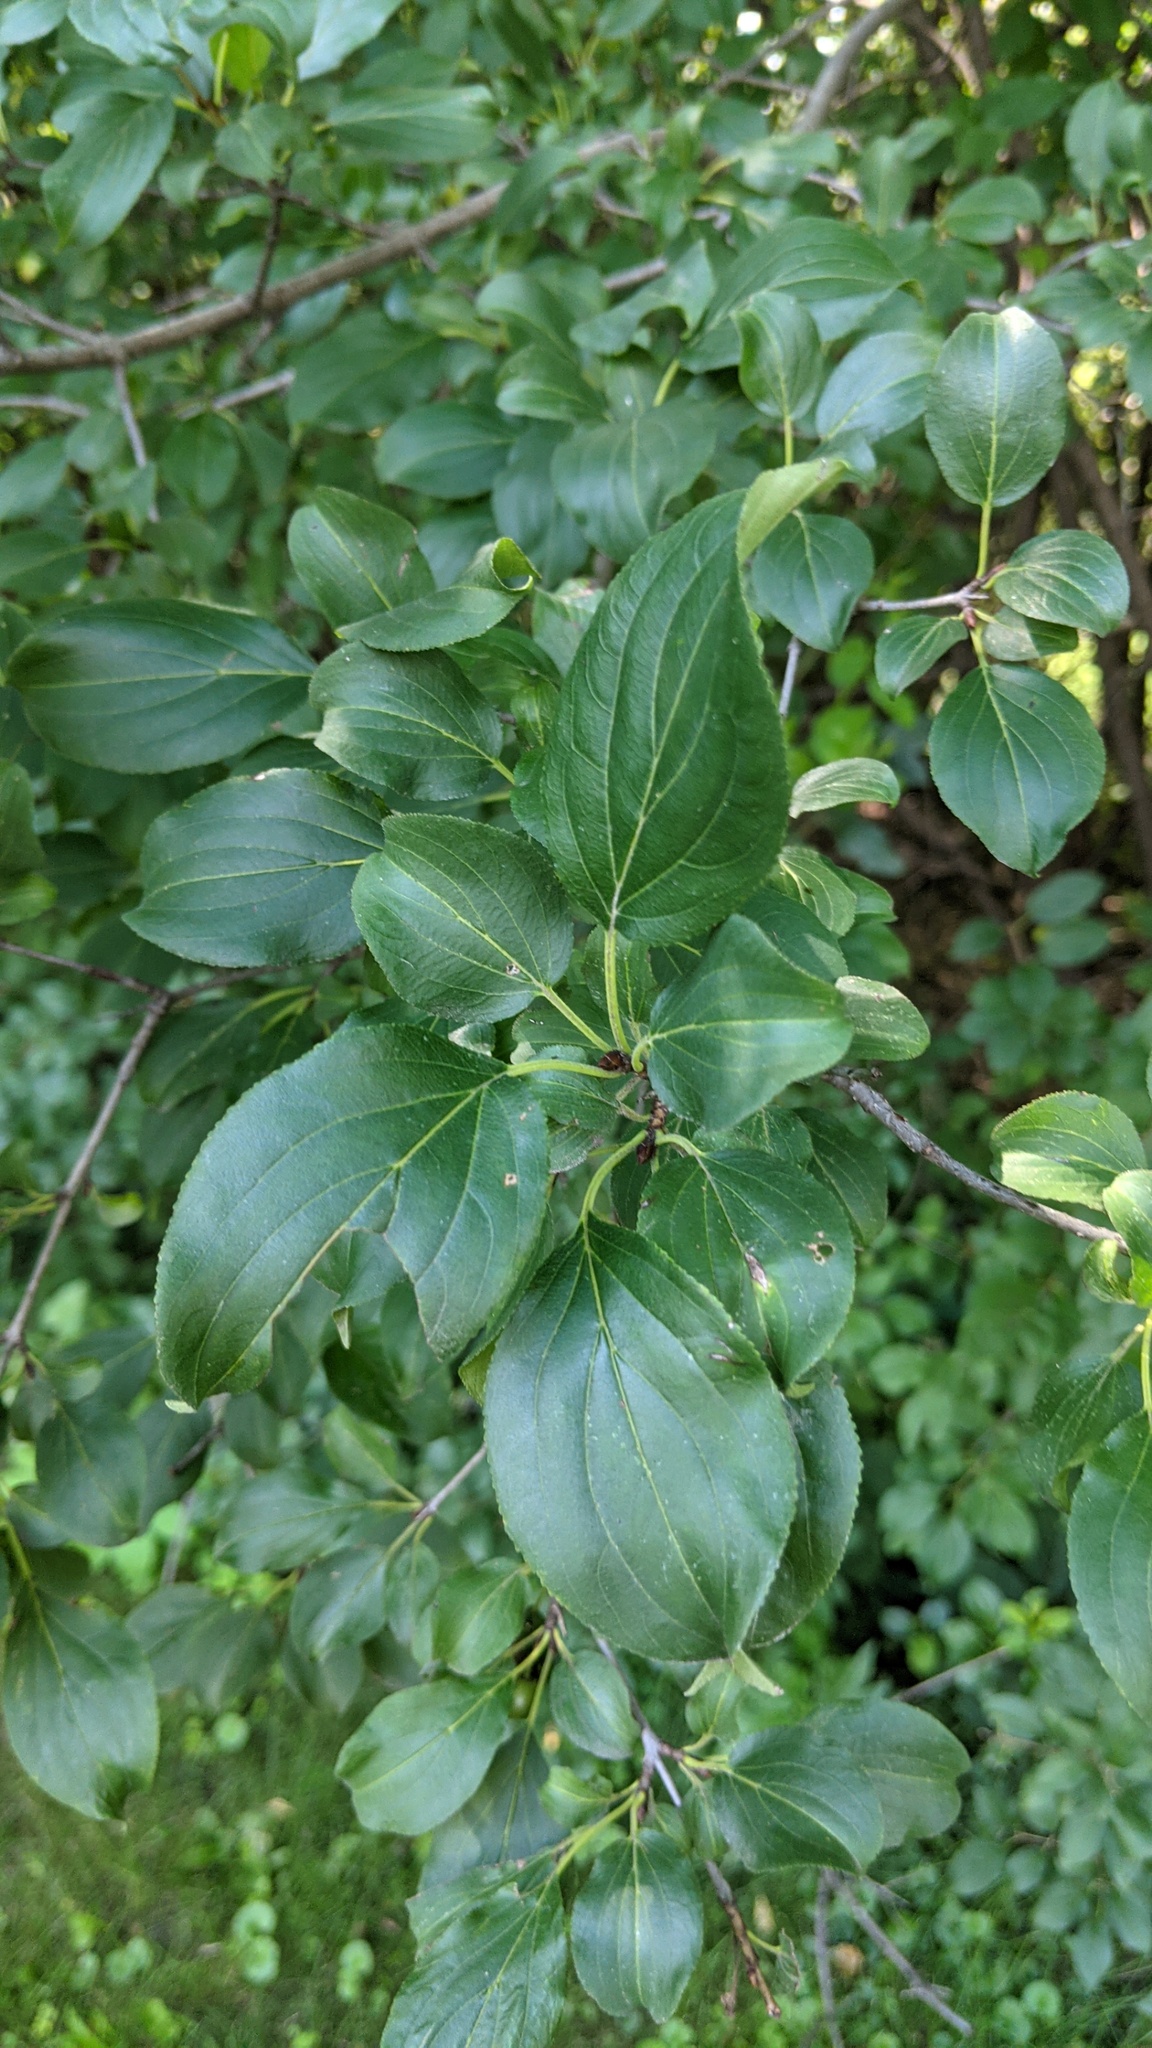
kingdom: Plantae
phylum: Tracheophyta
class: Magnoliopsida
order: Rosales
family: Rhamnaceae
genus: Rhamnus
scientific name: Rhamnus cathartica
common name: Common buckthorn
